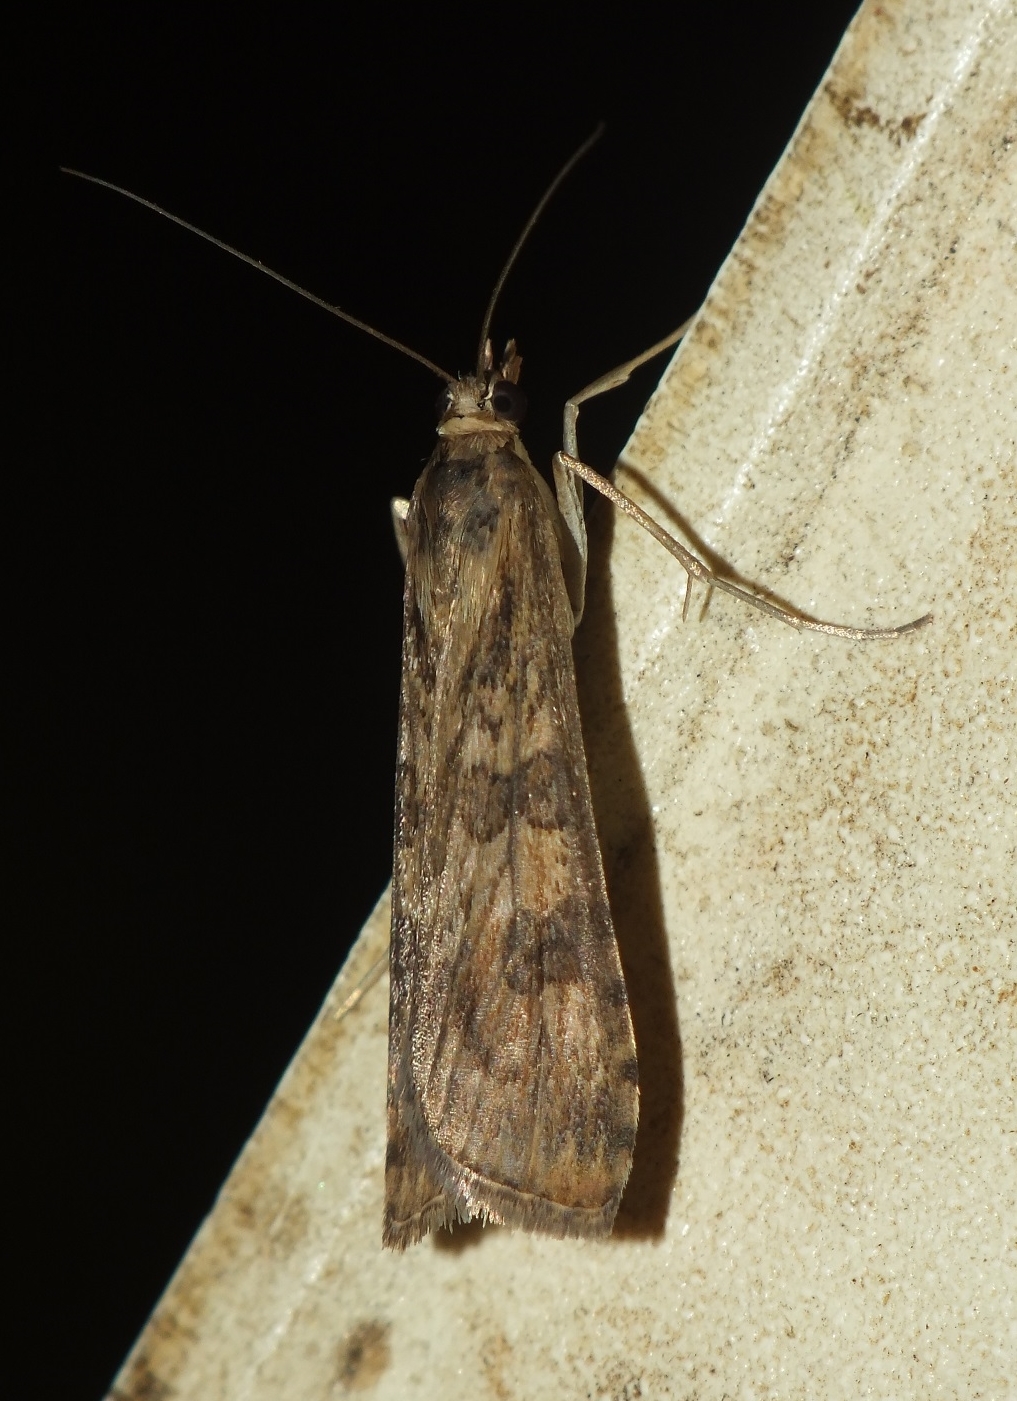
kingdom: Animalia
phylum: Arthropoda
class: Insecta
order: Lepidoptera
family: Crambidae
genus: Nomophila
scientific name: Nomophila noctuella
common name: Rush veneer
